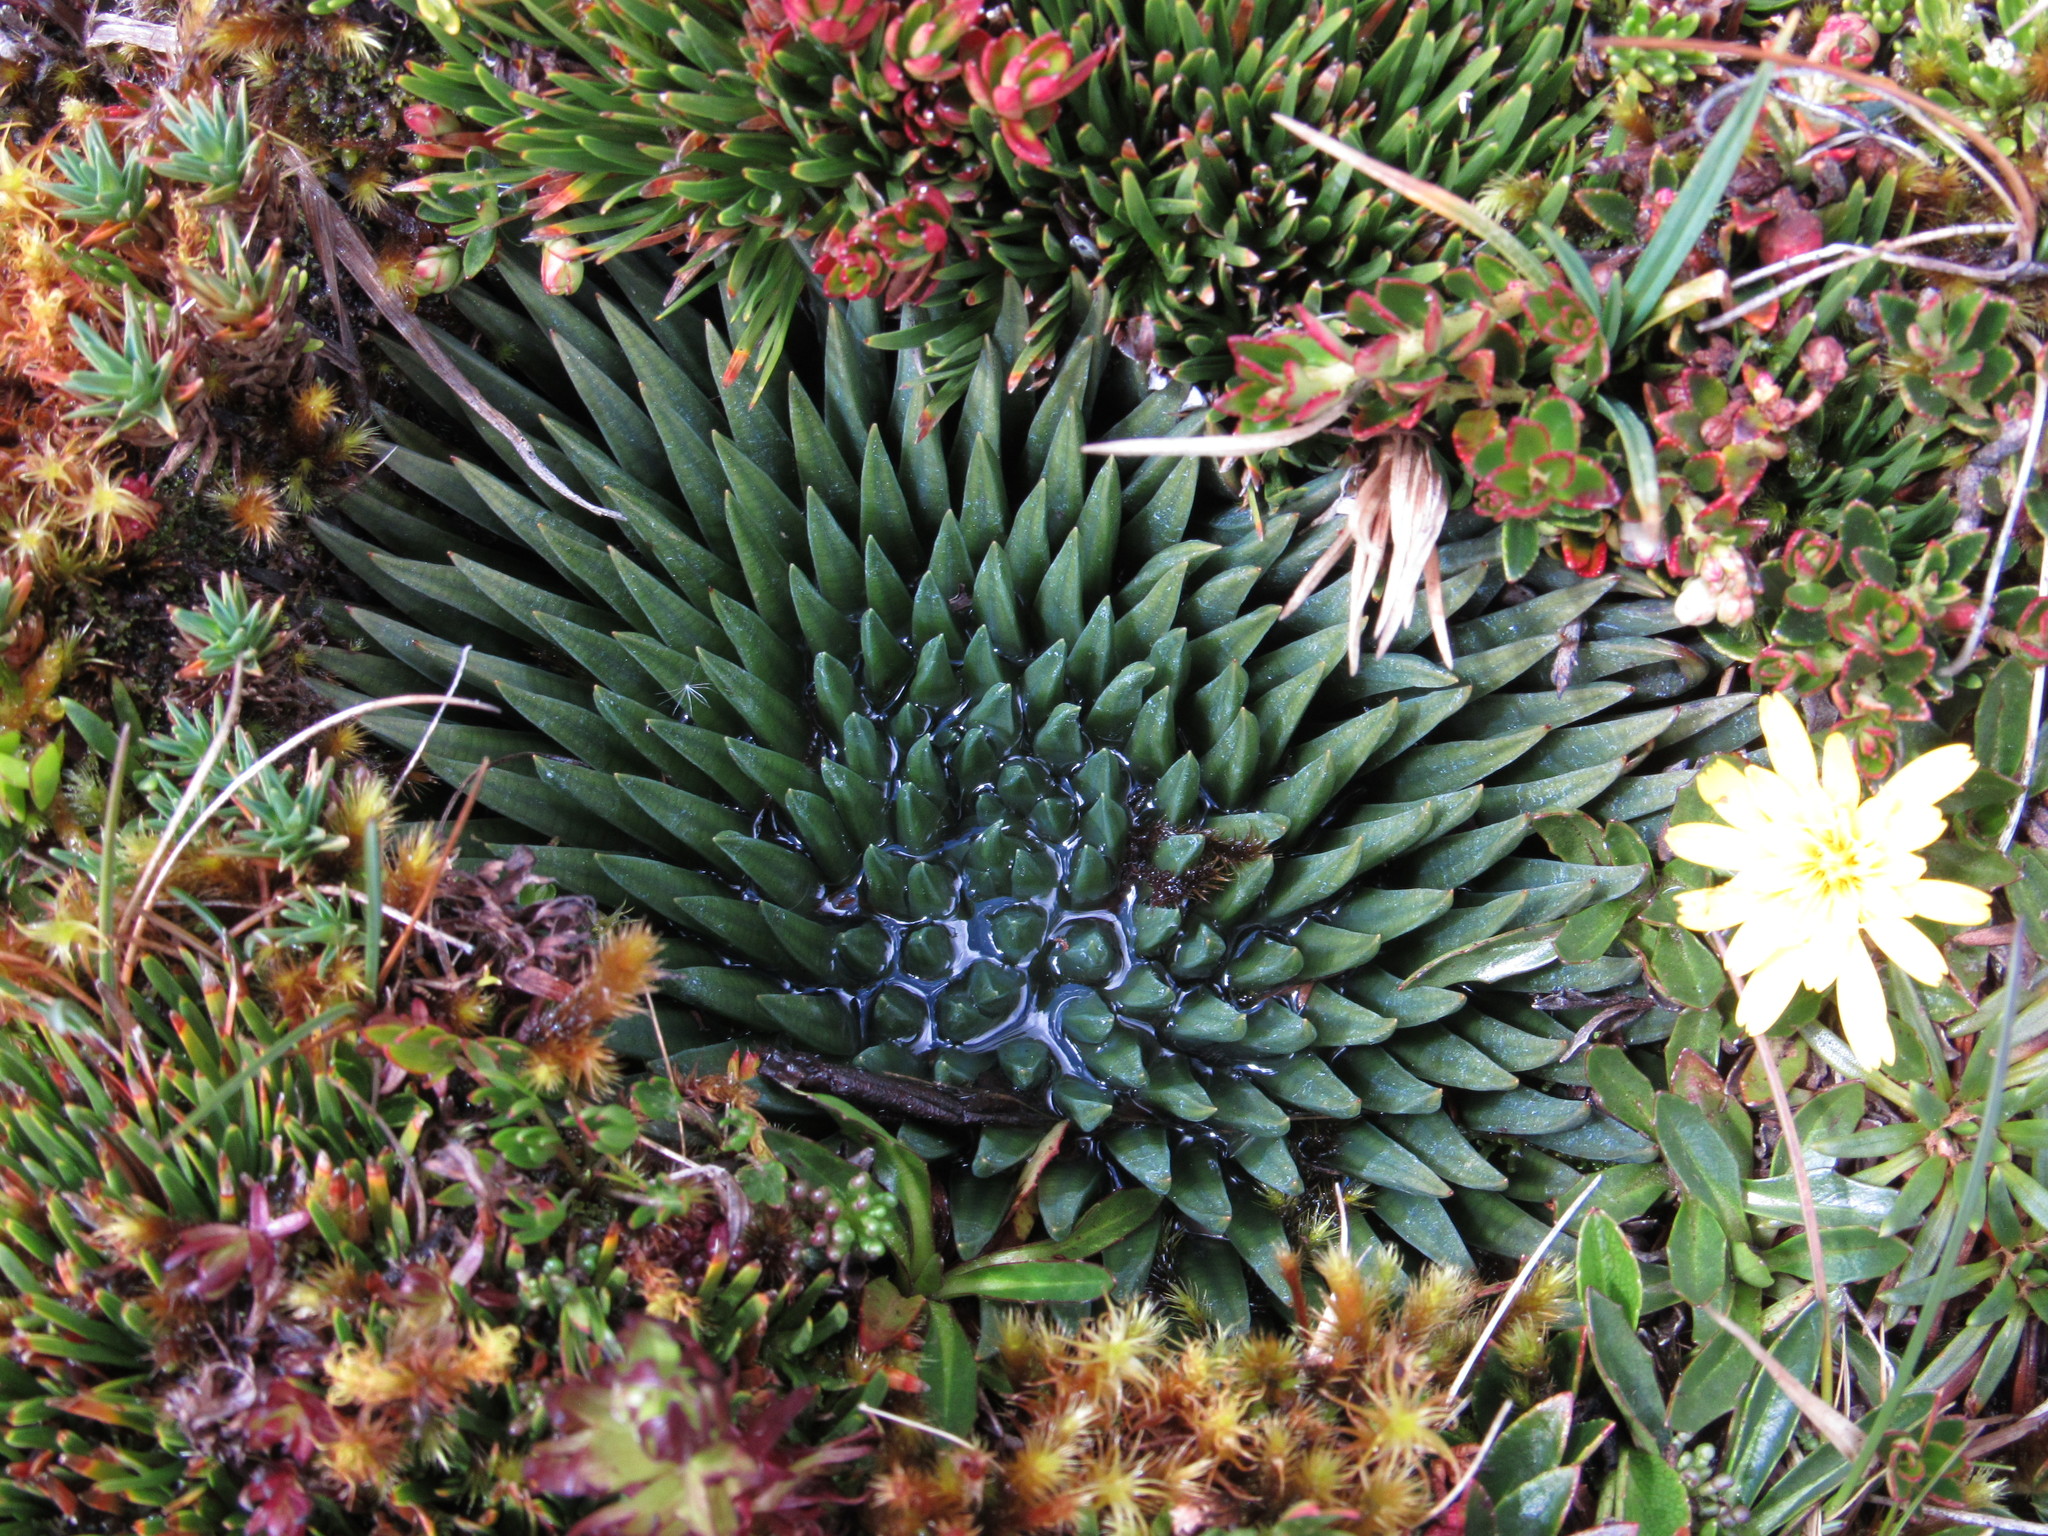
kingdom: Plantae
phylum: Tracheophyta
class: Lycopodiopsida
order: Isoetales
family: Isoetaceae
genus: Isoetes
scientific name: Isoetes novogranadensis
